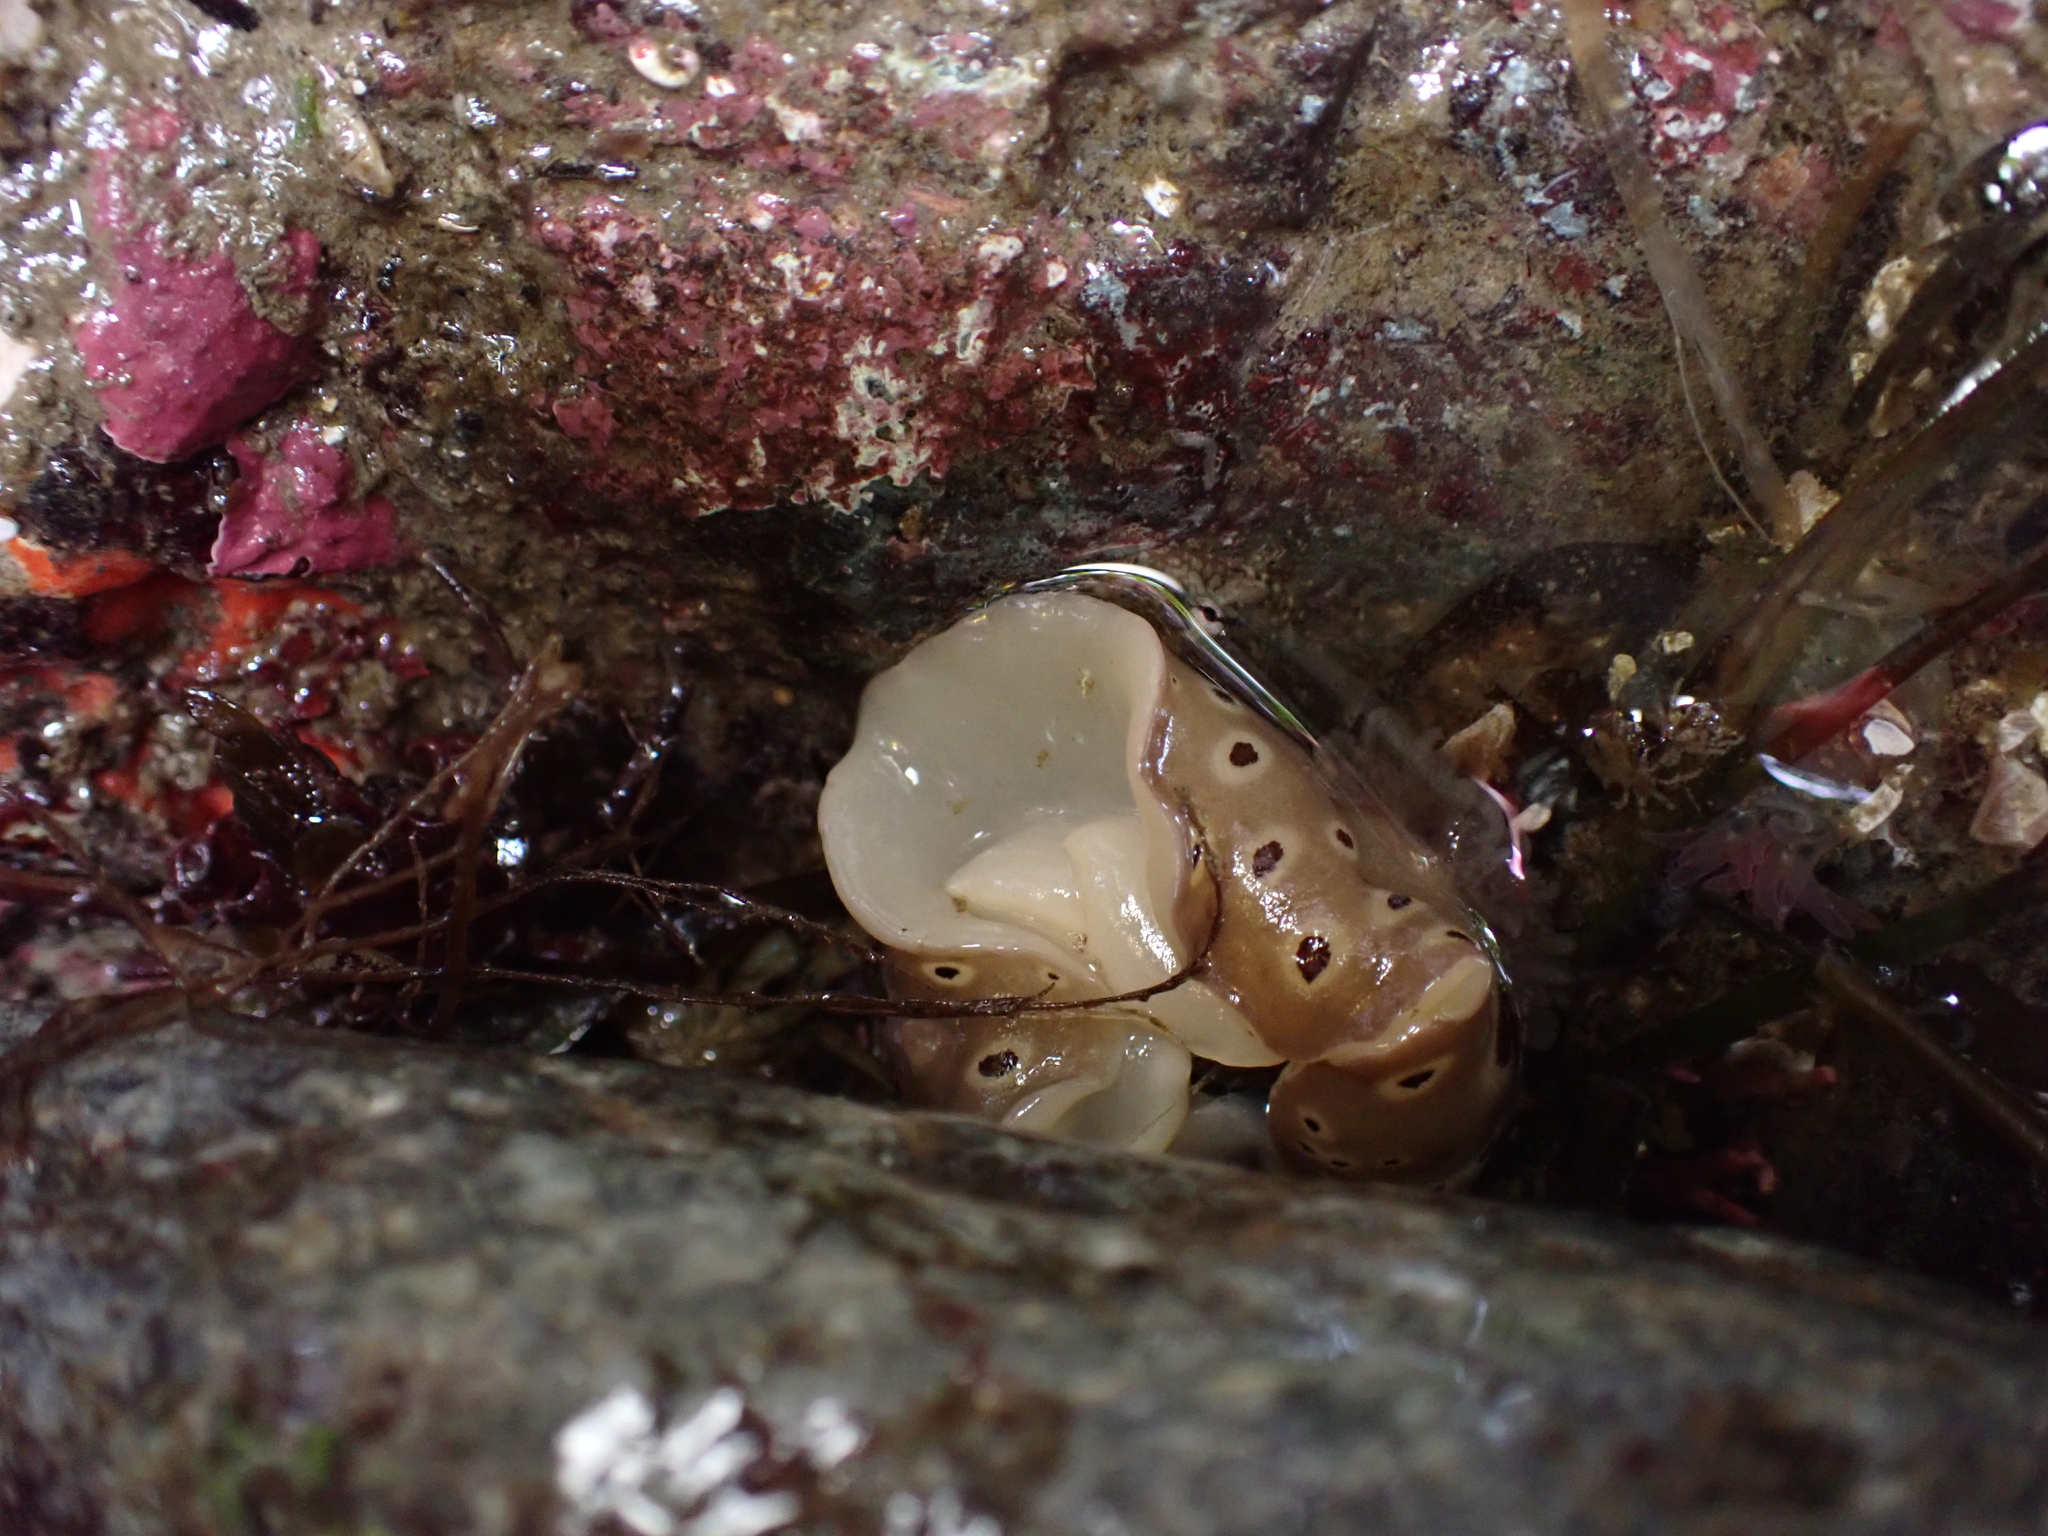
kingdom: Animalia
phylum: Mollusca
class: Gastropoda
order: Nudibranchia
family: Discodorididae
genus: Diaulula
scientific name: Diaulula odonoghuei
